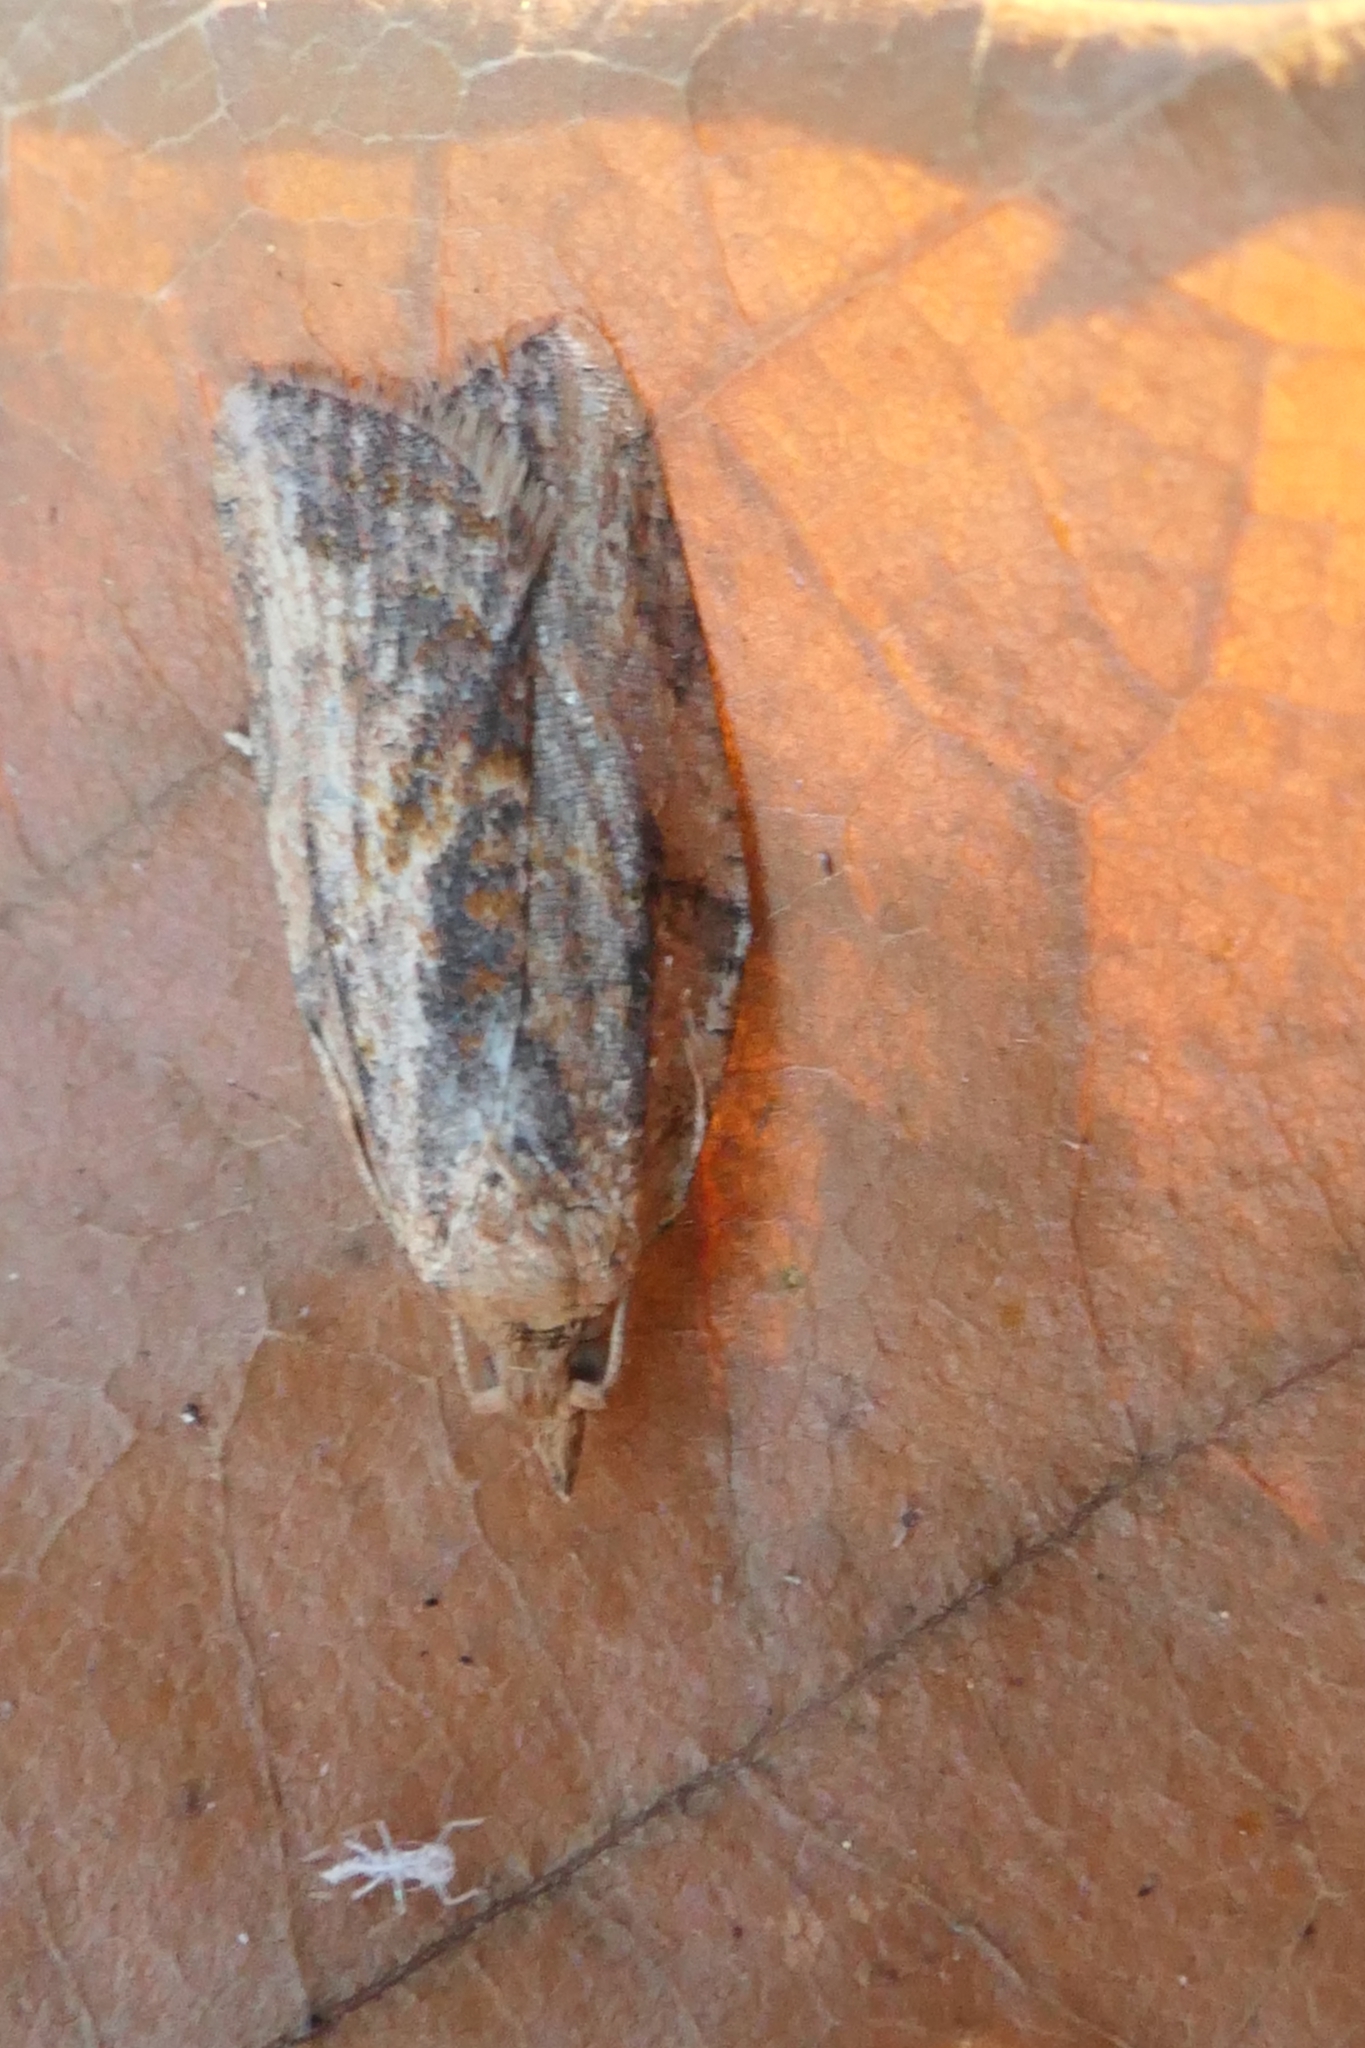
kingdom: Animalia
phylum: Arthropoda
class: Insecta
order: Lepidoptera
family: Tortricidae
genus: Epiphyas
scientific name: Epiphyas postvittana
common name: Light brown apple moth
